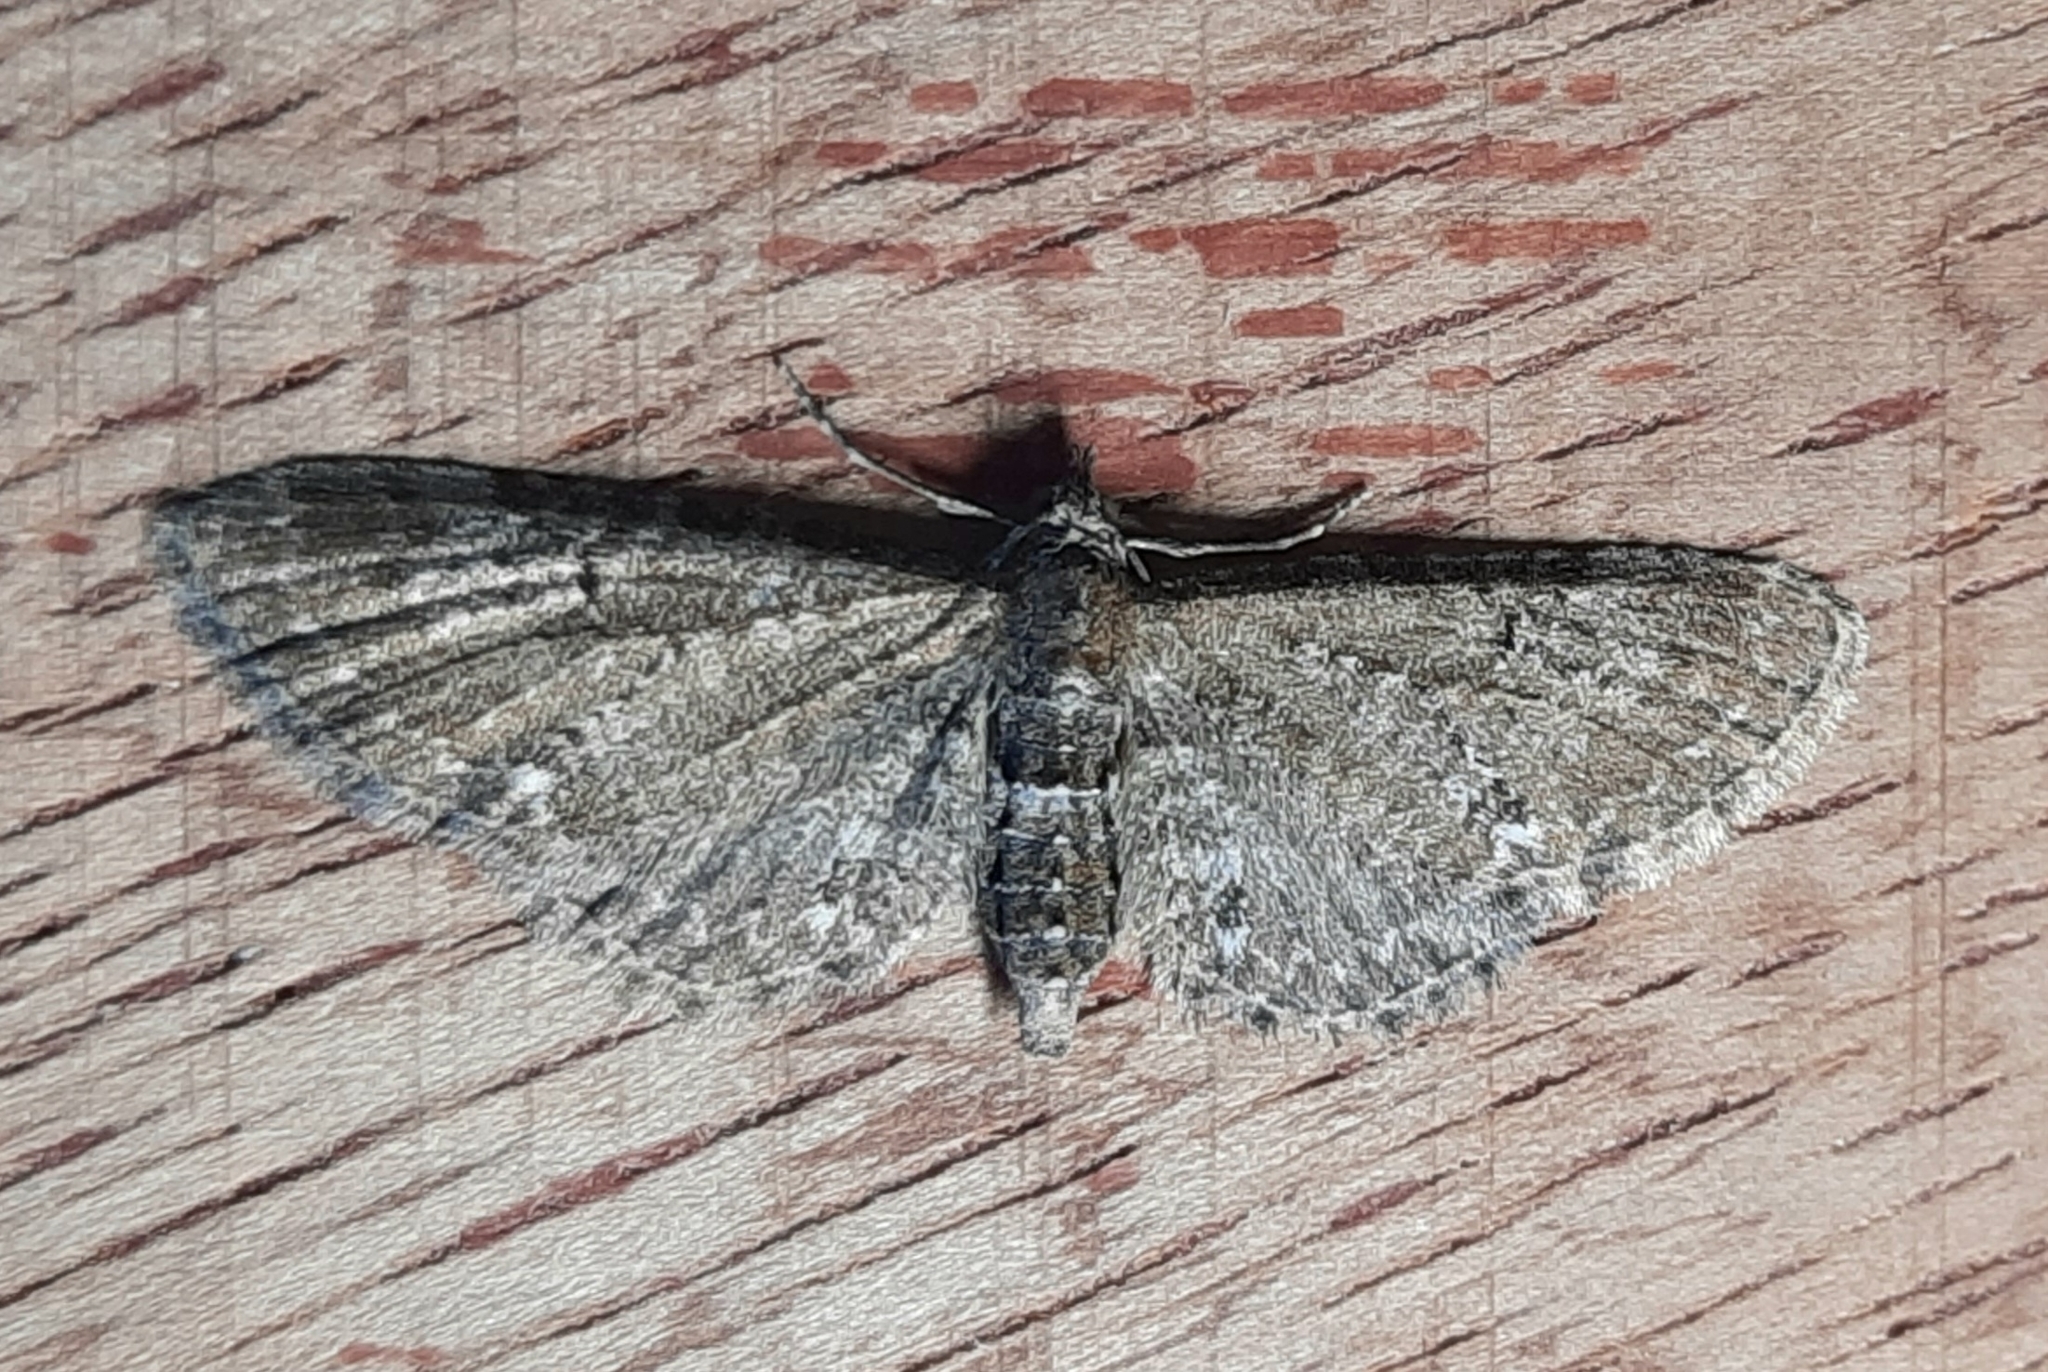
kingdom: Animalia
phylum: Arthropoda
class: Insecta
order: Lepidoptera
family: Geometridae
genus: Eupithecia
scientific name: Eupithecia vulgata
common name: Common pug
